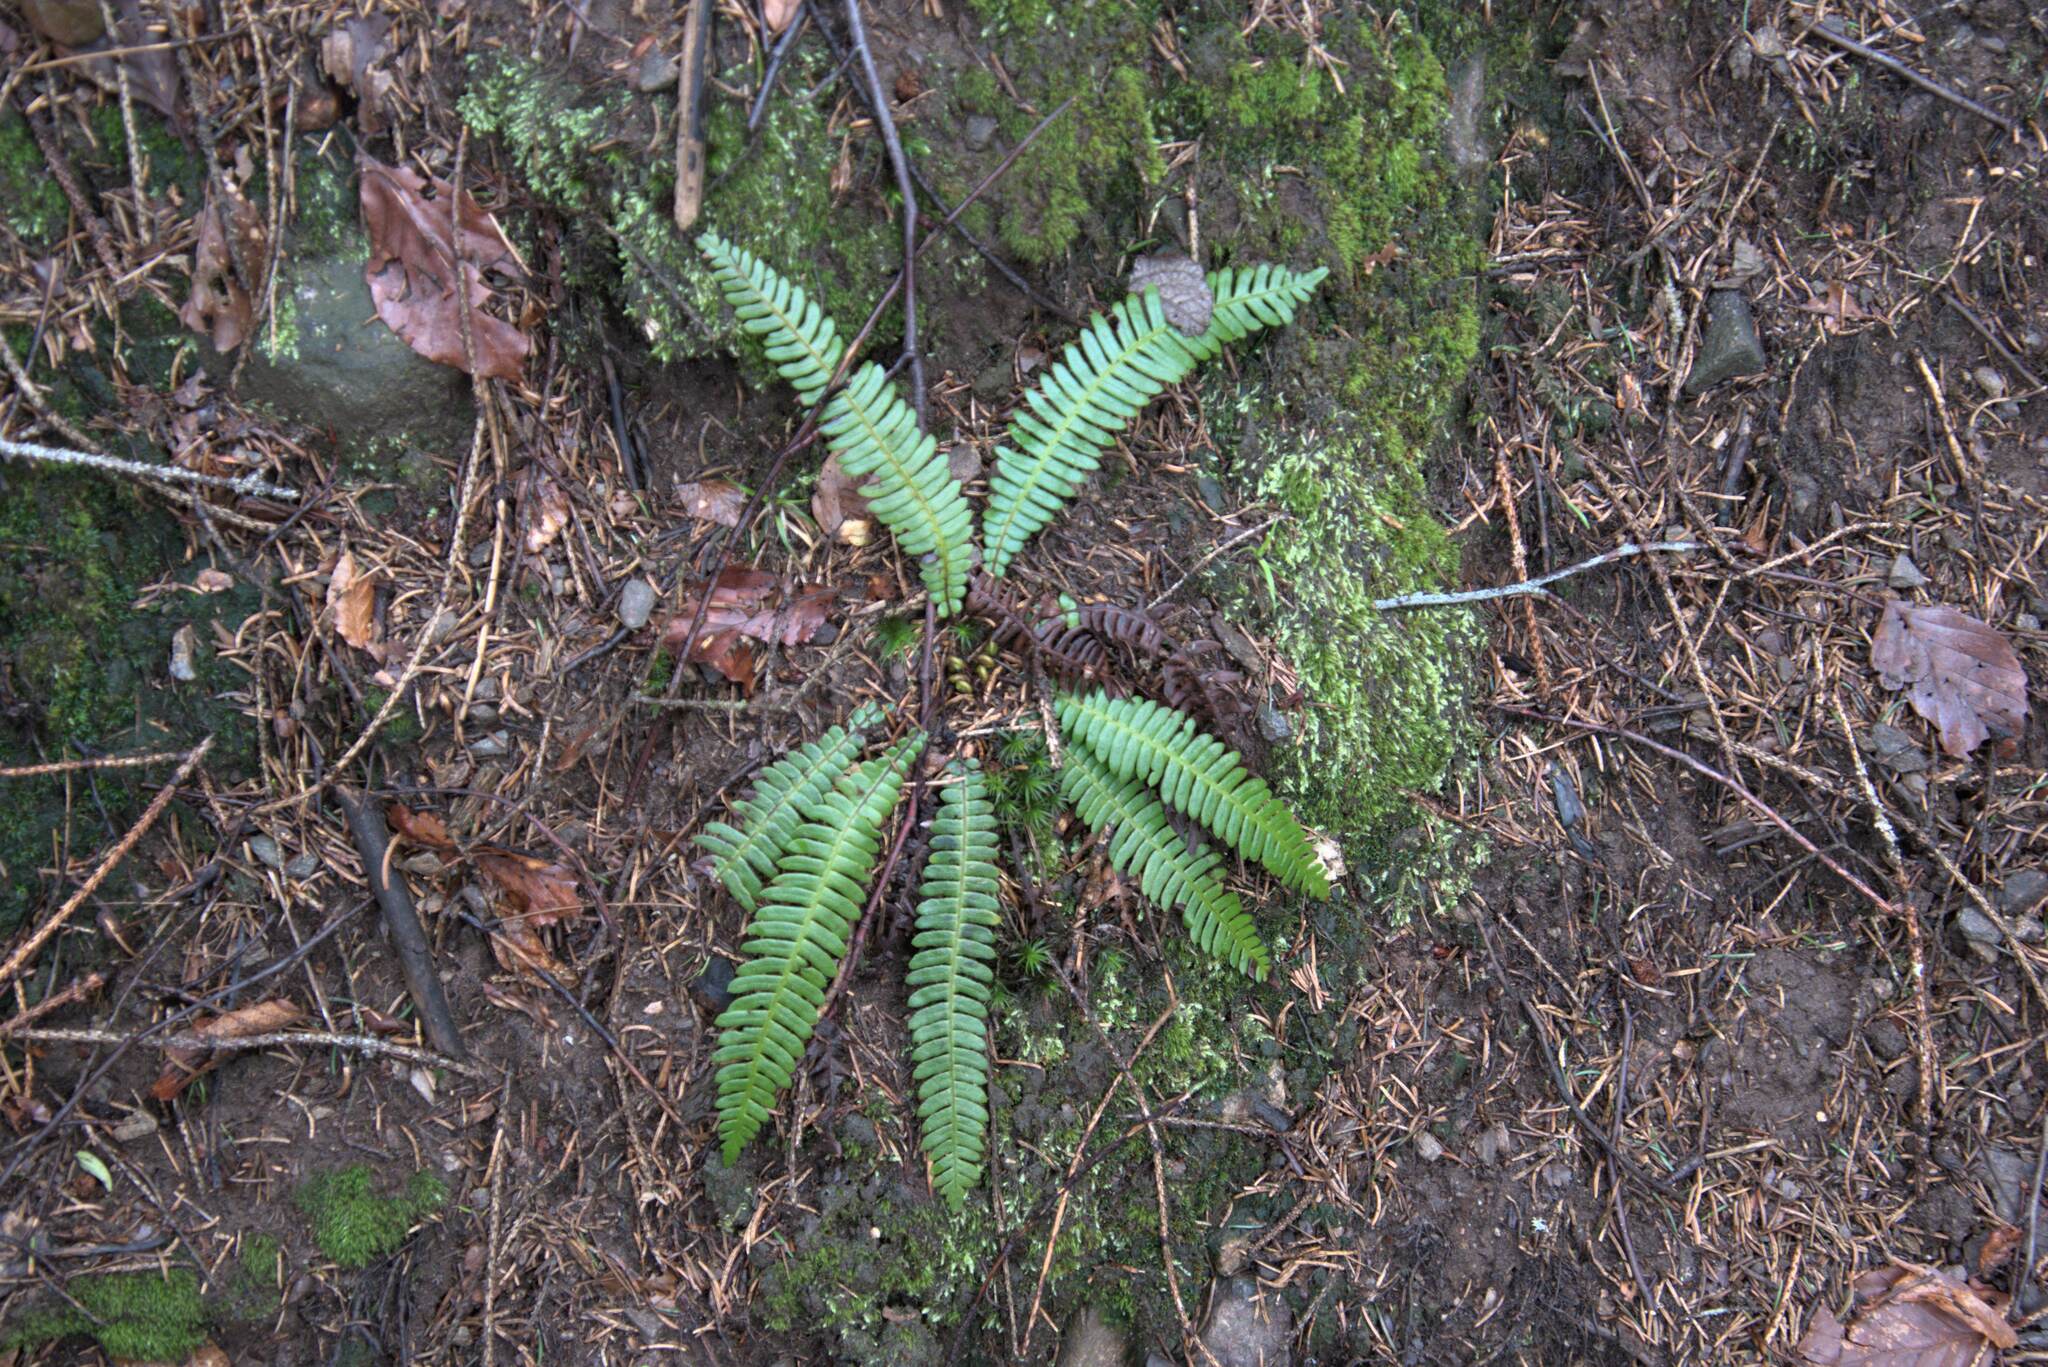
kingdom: Plantae
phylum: Tracheophyta
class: Polypodiopsida
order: Polypodiales
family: Blechnaceae
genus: Struthiopteris
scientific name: Struthiopteris spicant
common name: Deer fern
